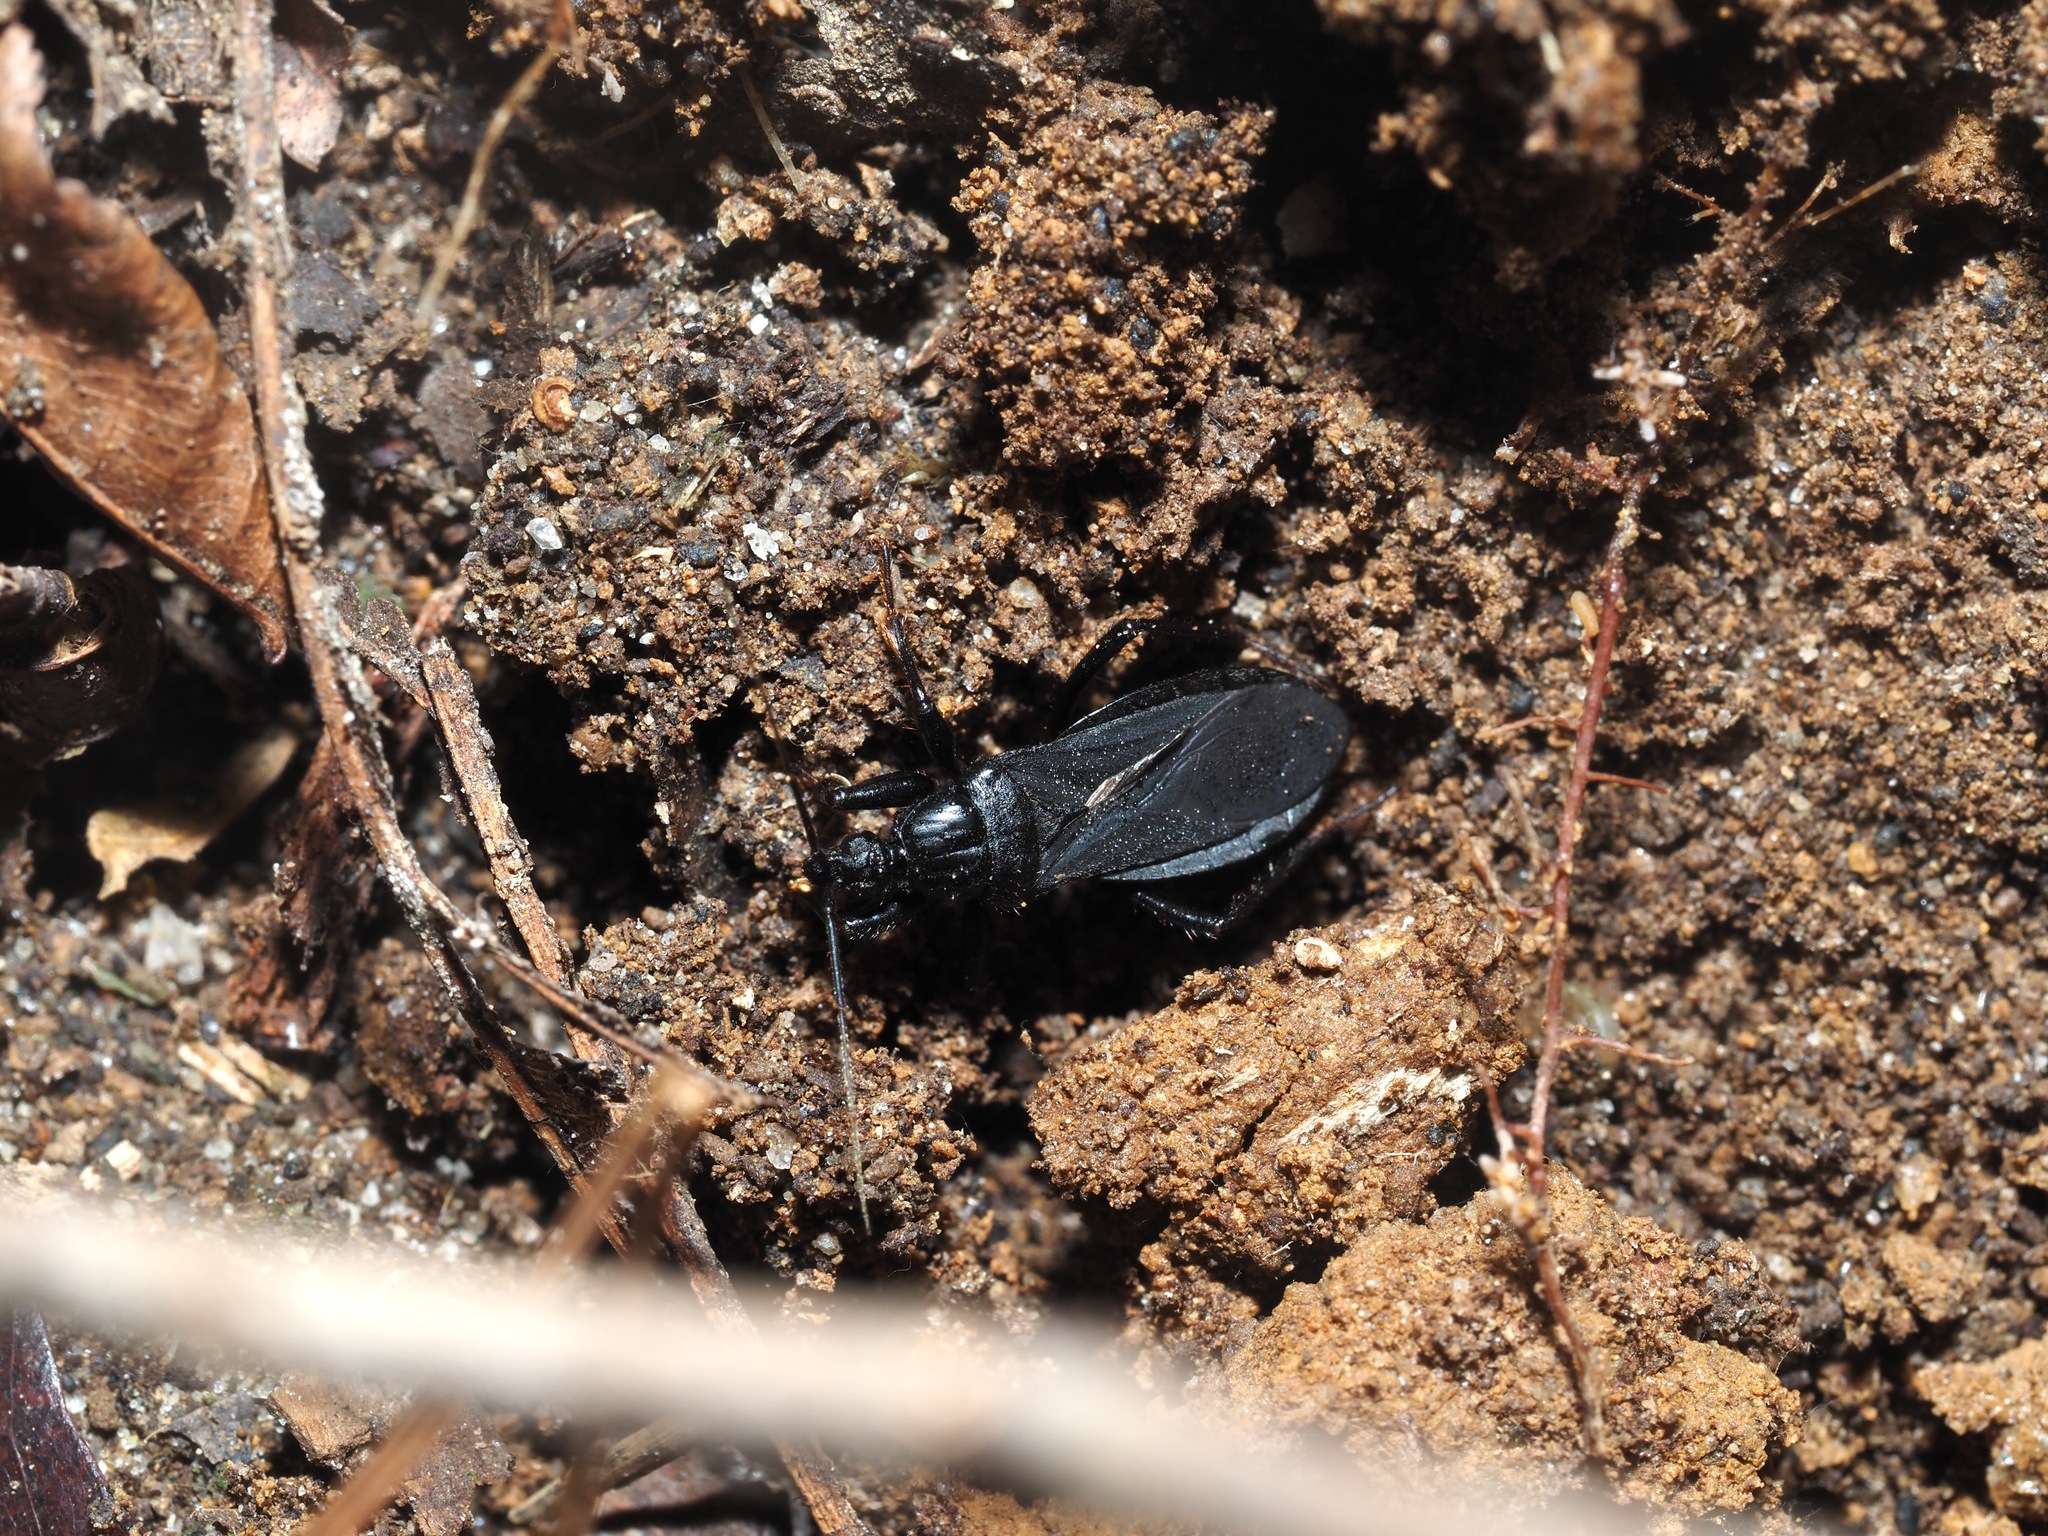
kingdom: Animalia
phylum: Arthropoda
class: Insecta
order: Hemiptera
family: Reduviidae
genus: Melanolestes
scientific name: Melanolestes picipes
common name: Assassin bug
